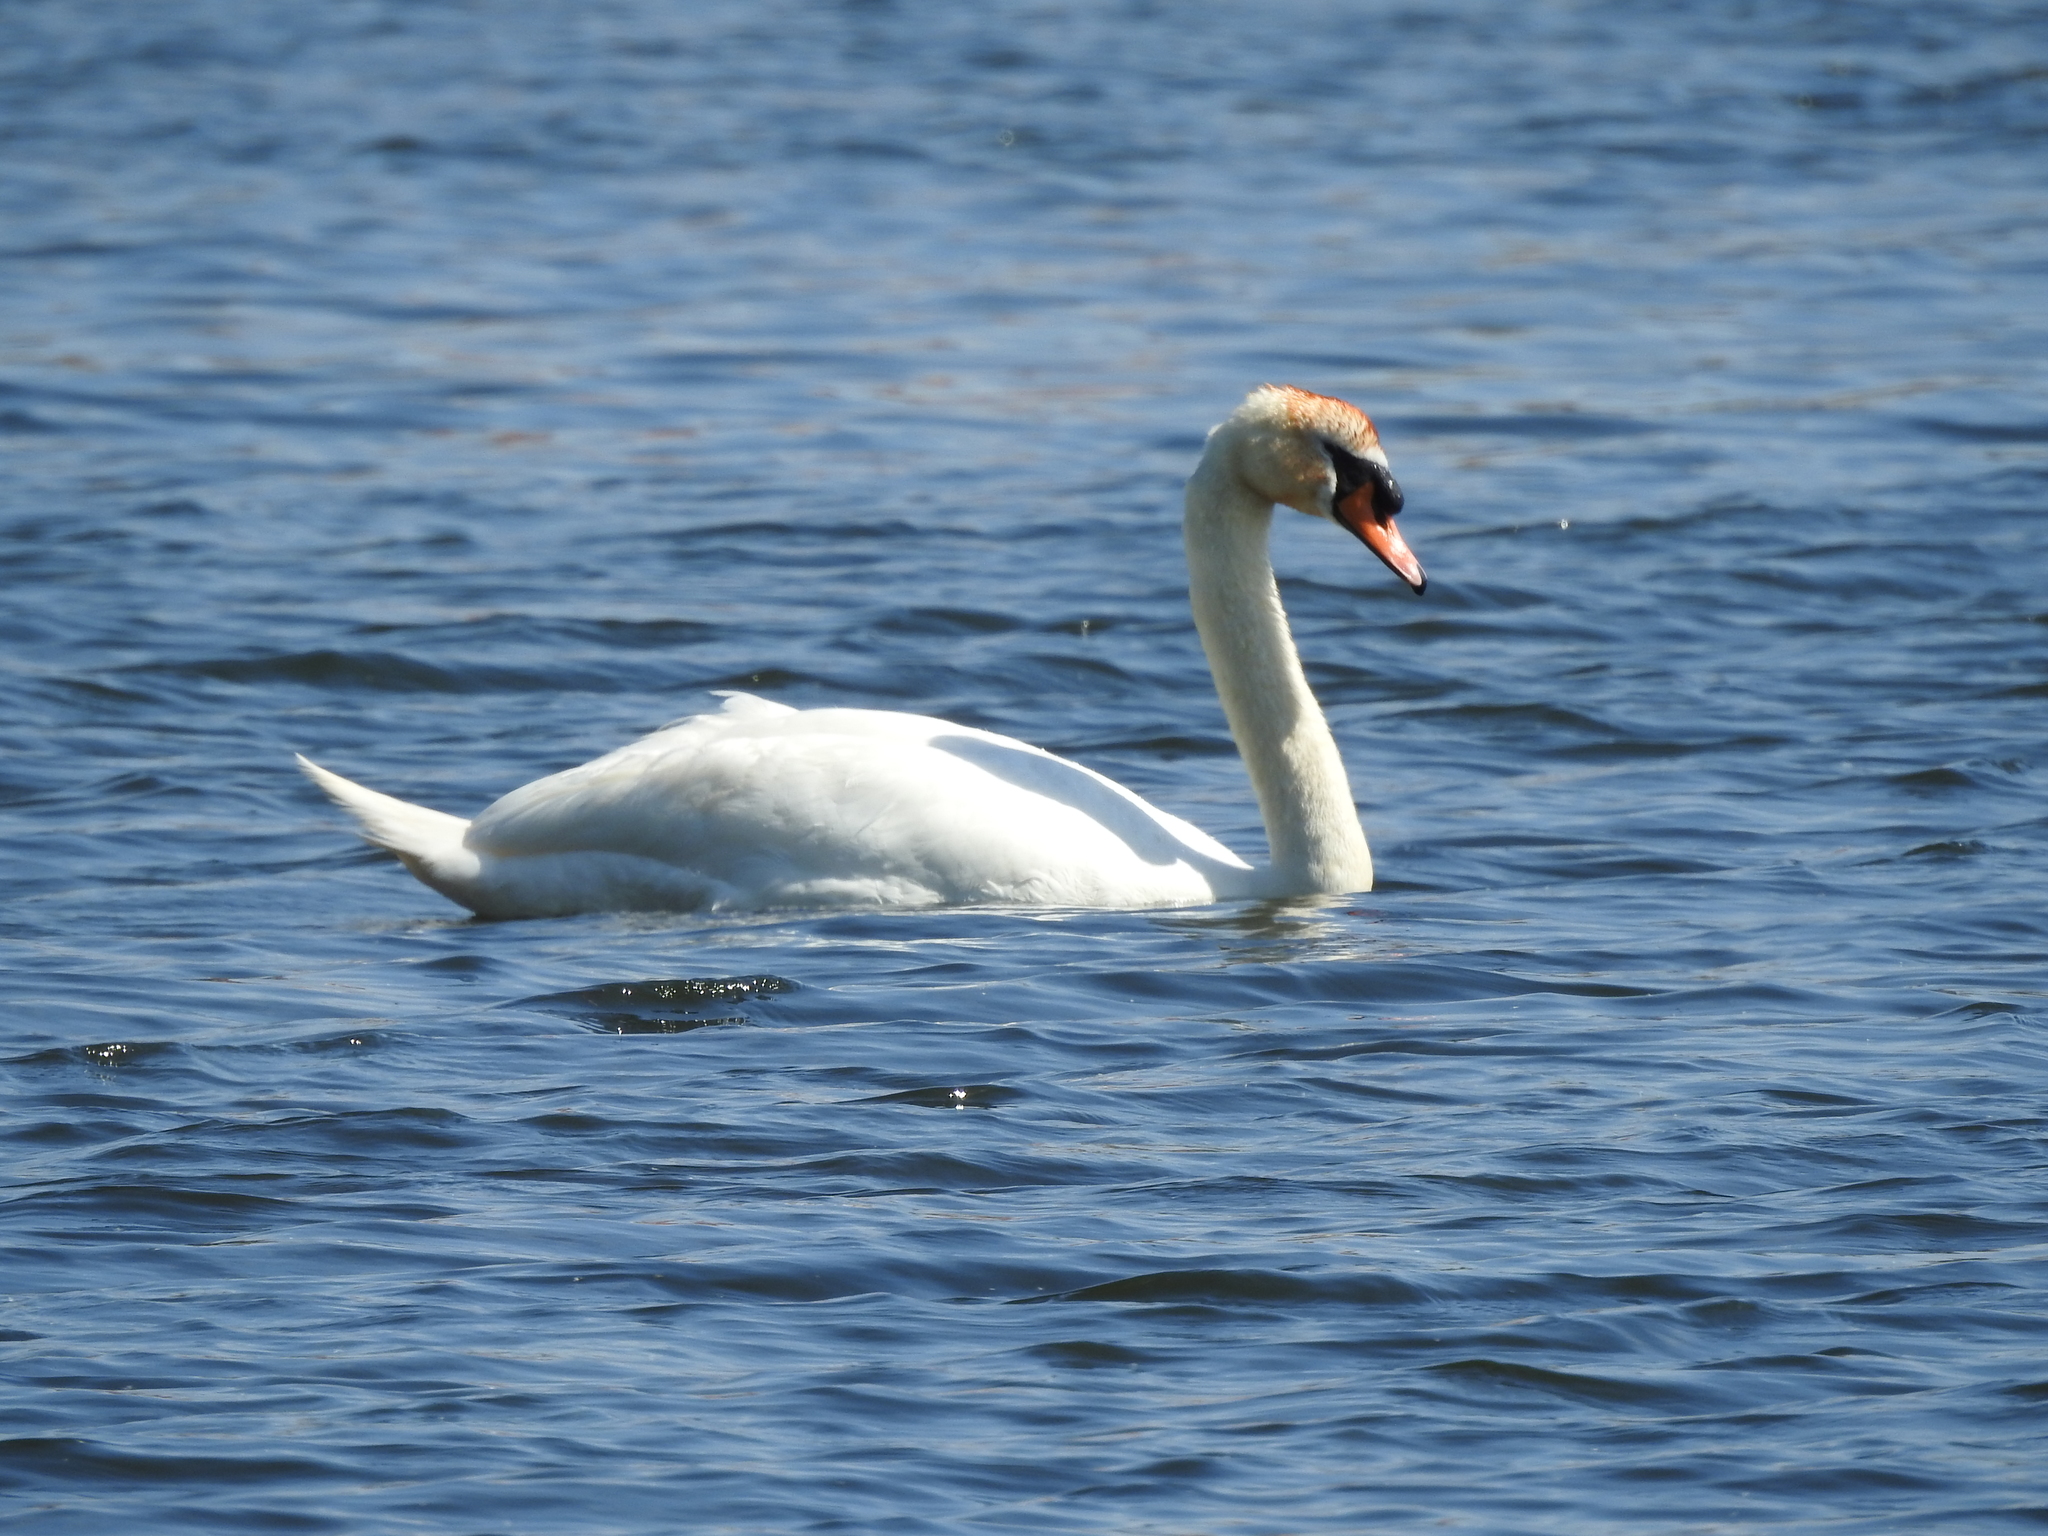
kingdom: Animalia
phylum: Chordata
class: Aves
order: Anseriformes
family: Anatidae
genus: Cygnus
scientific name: Cygnus olor
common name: Mute swan
